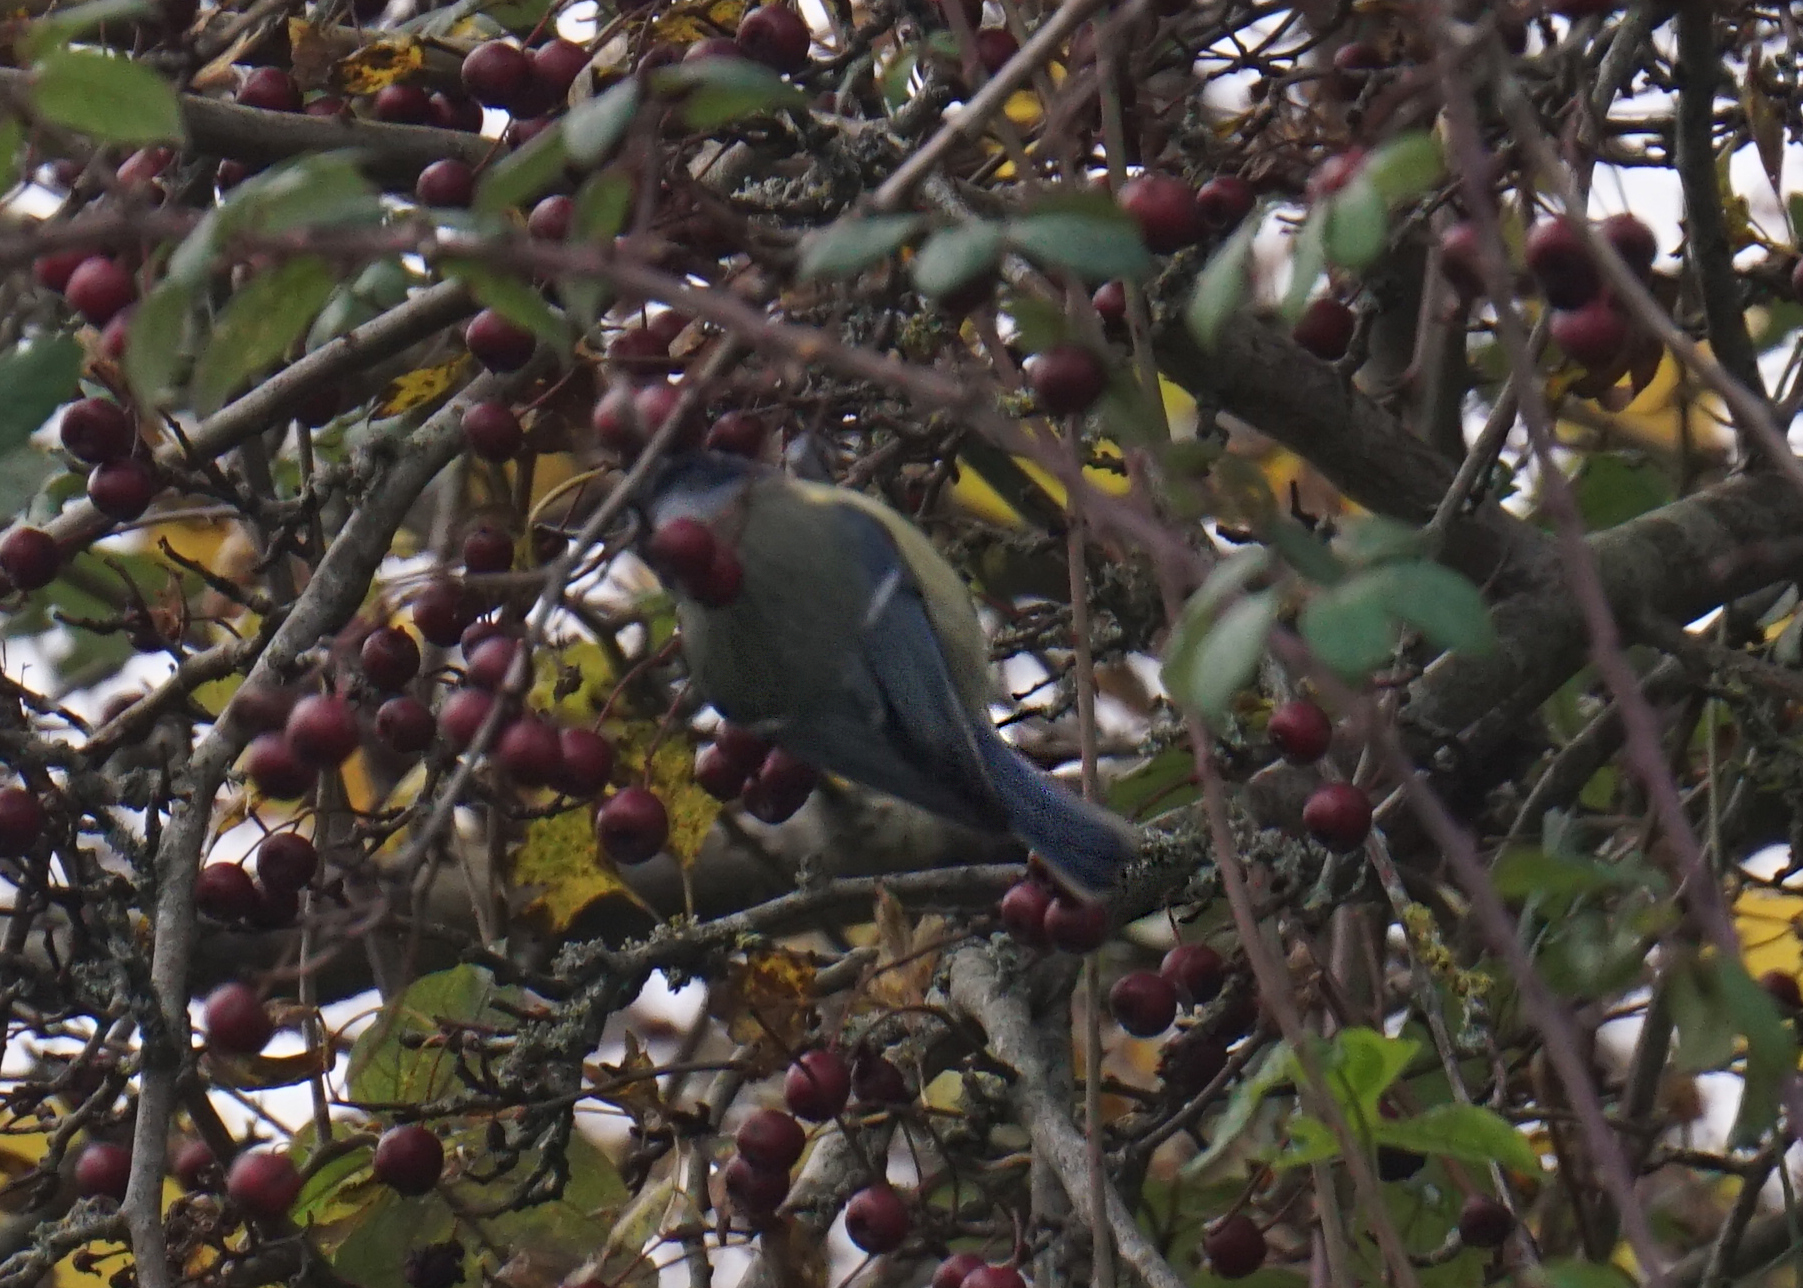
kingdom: Animalia
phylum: Chordata
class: Aves
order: Passeriformes
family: Paridae
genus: Cyanistes
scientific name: Cyanistes caeruleus
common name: Eurasian blue tit
